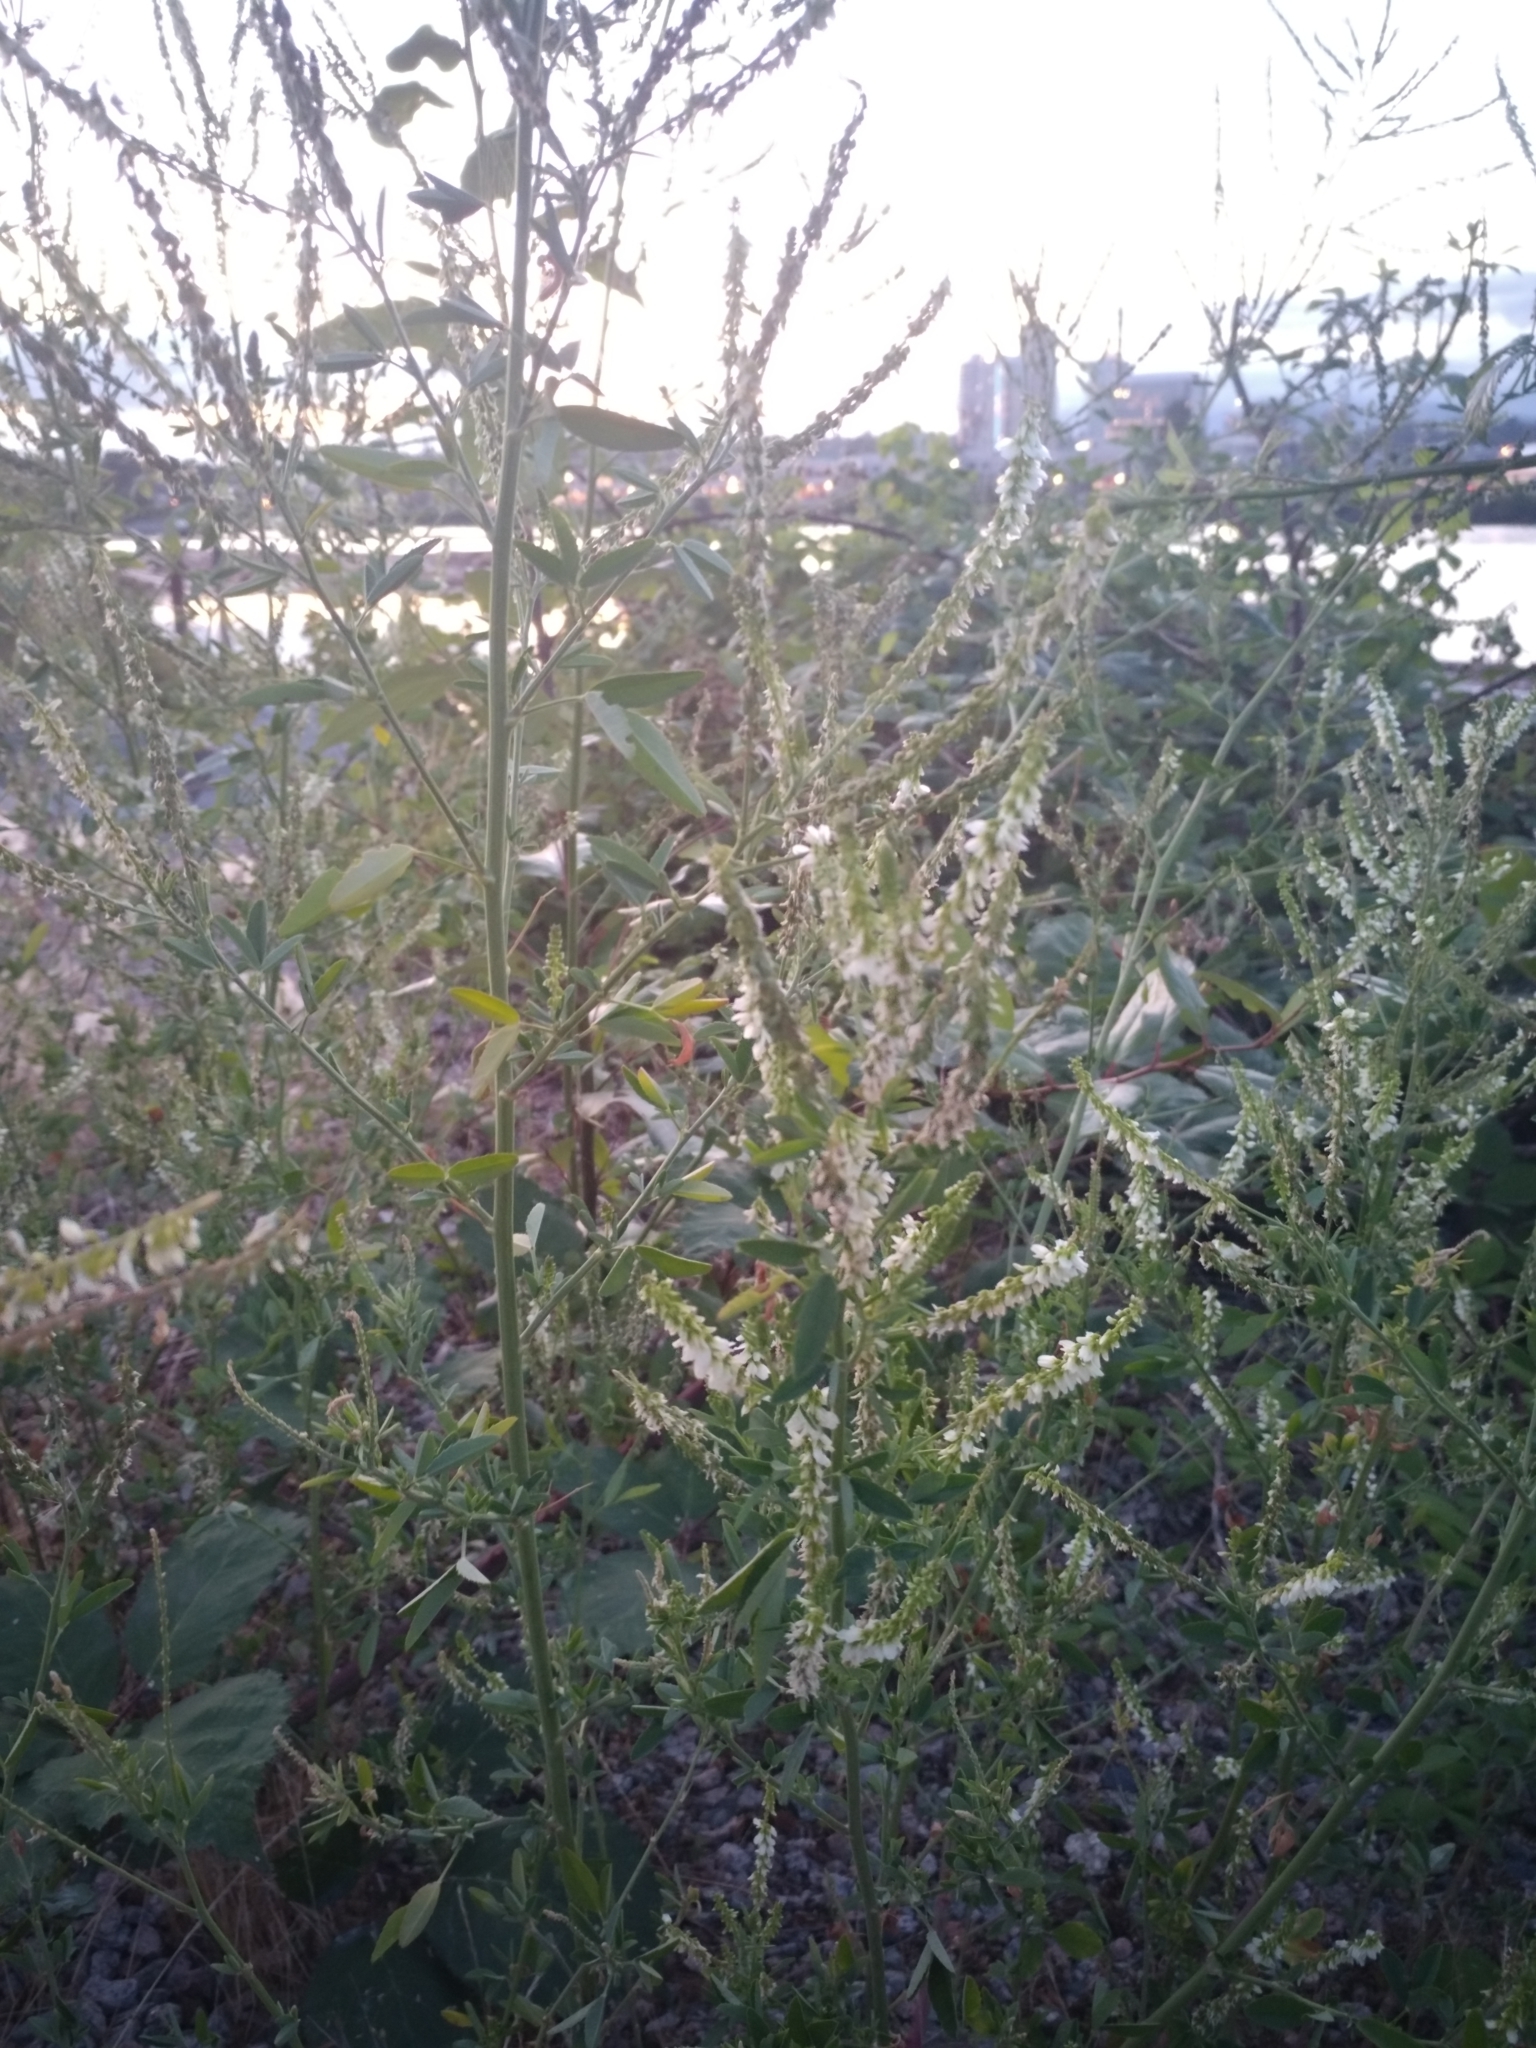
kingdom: Plantae
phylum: Tracheophyta
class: Magnoliopsida
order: Fabales
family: Fabaceae
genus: Melilotus
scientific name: Melilotus albus
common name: White melilot
